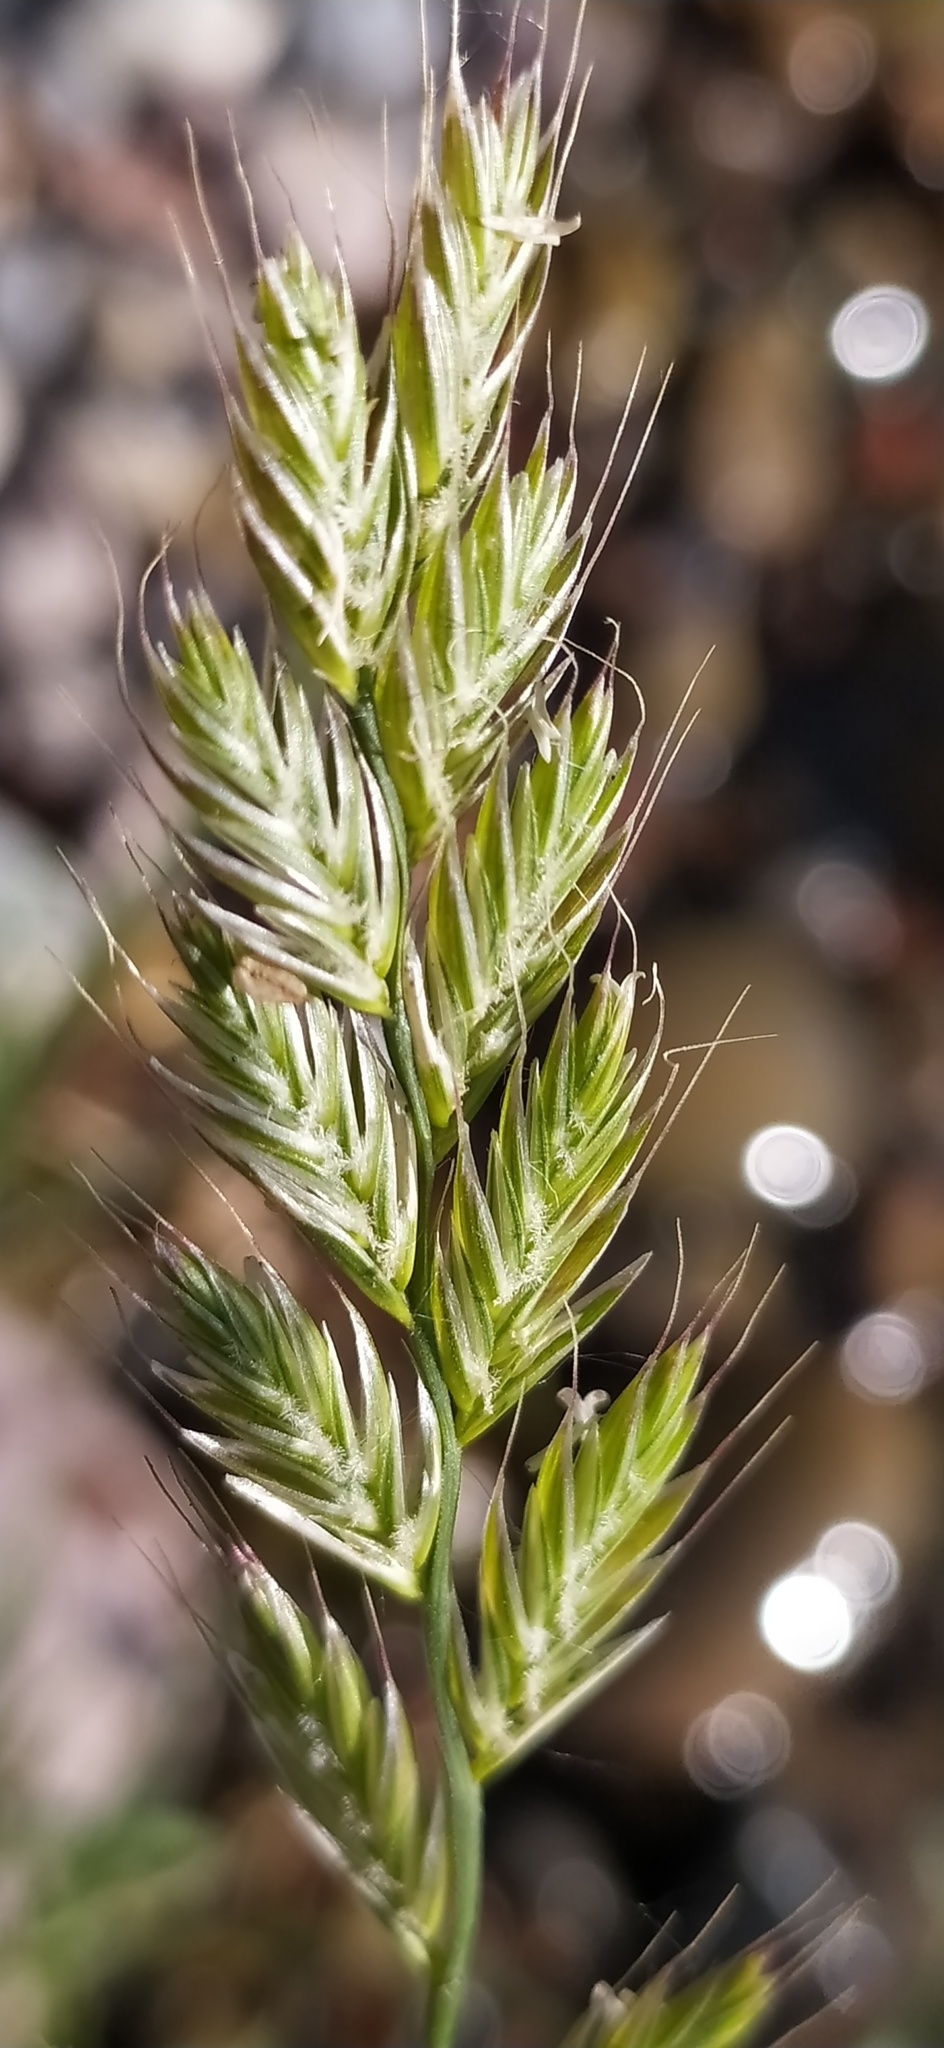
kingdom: Plantae
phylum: Tracheophyta
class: Liliopsida
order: Poales
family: Poaceae
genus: Lolium
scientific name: Lolium multiflorum
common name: Annual ryegrass
